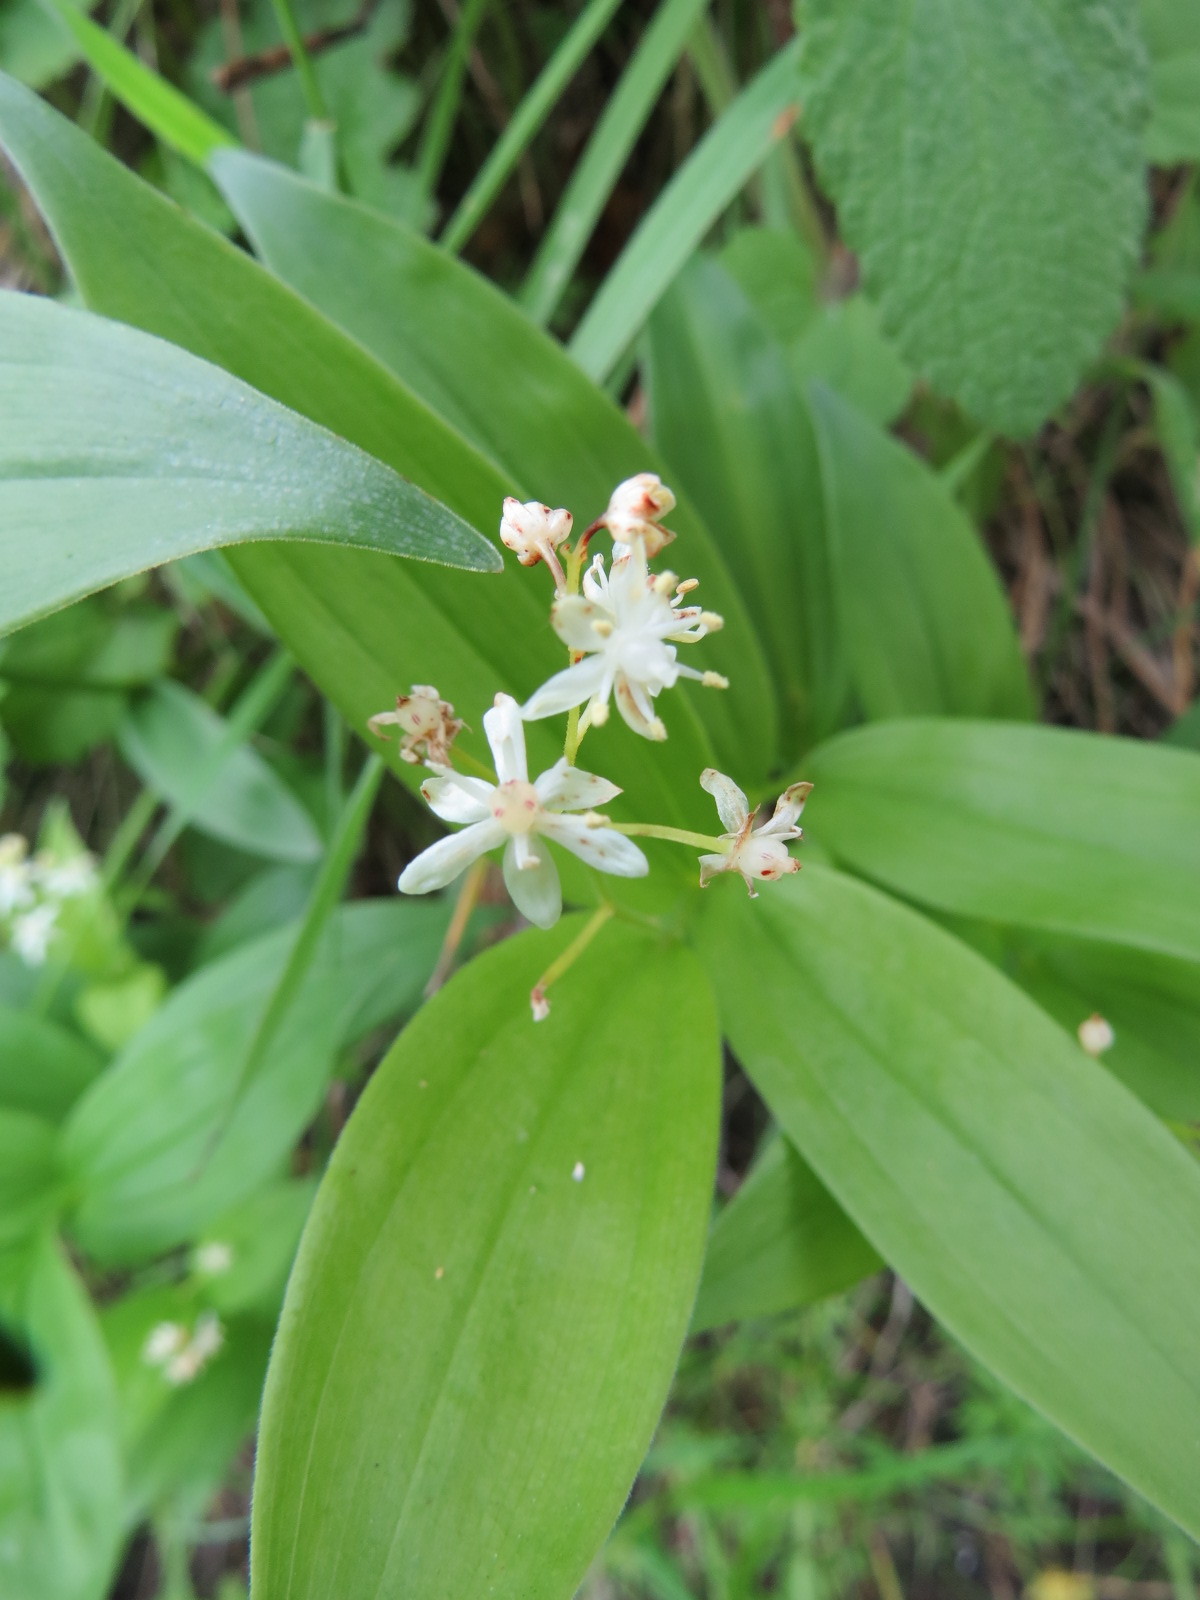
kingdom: Plantae
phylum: Tracheophyta
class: Liliopsida
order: Asparagales
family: Asparagaceae
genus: Maianthemum
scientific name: Maianthemum stellatum
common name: Little false solomon's seal
